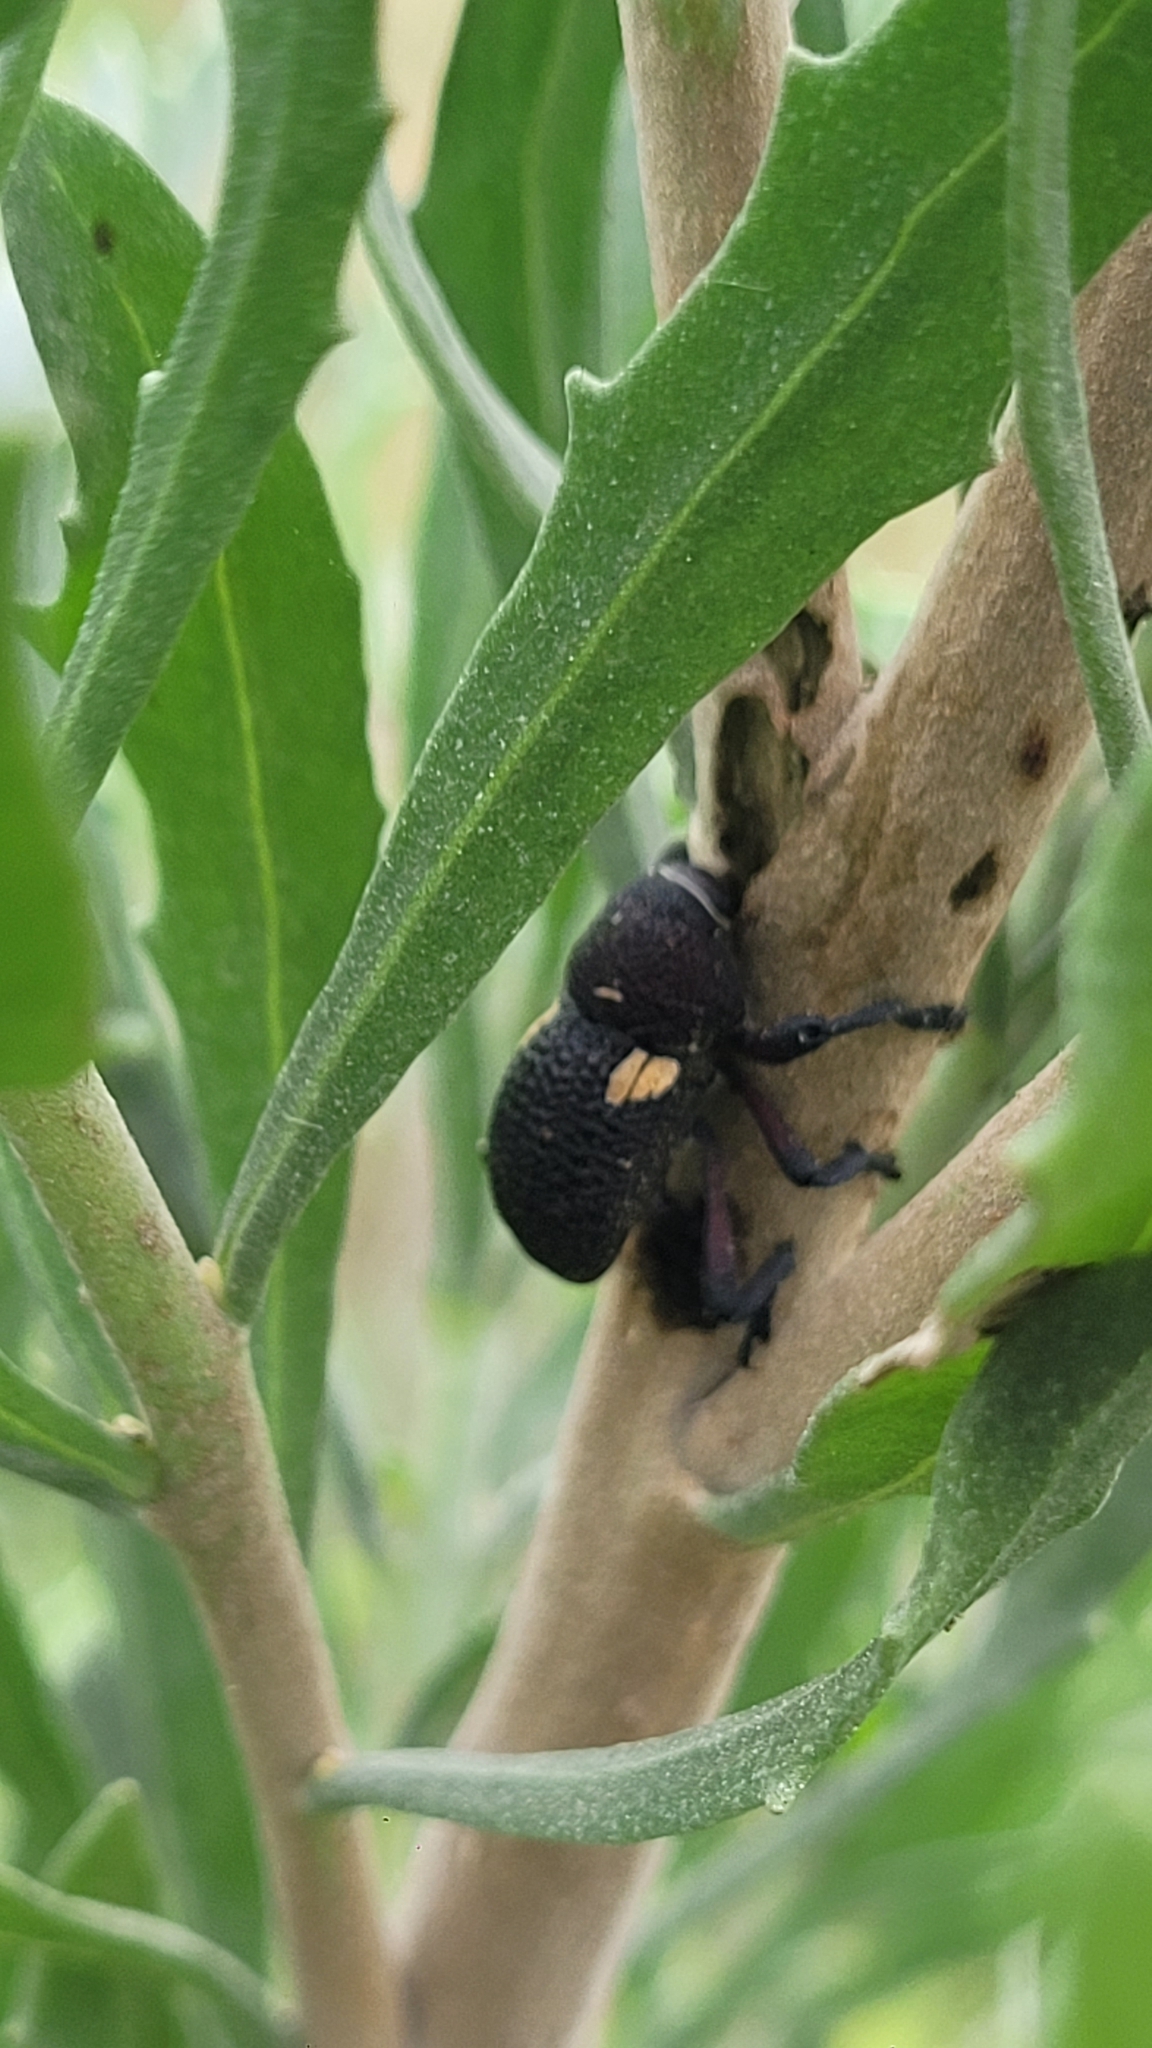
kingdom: Animalia
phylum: Arthropoda
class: Insecta
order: Coleoptera
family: Curculionidae
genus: Rhyephenes
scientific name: Rhyephenes gayi
